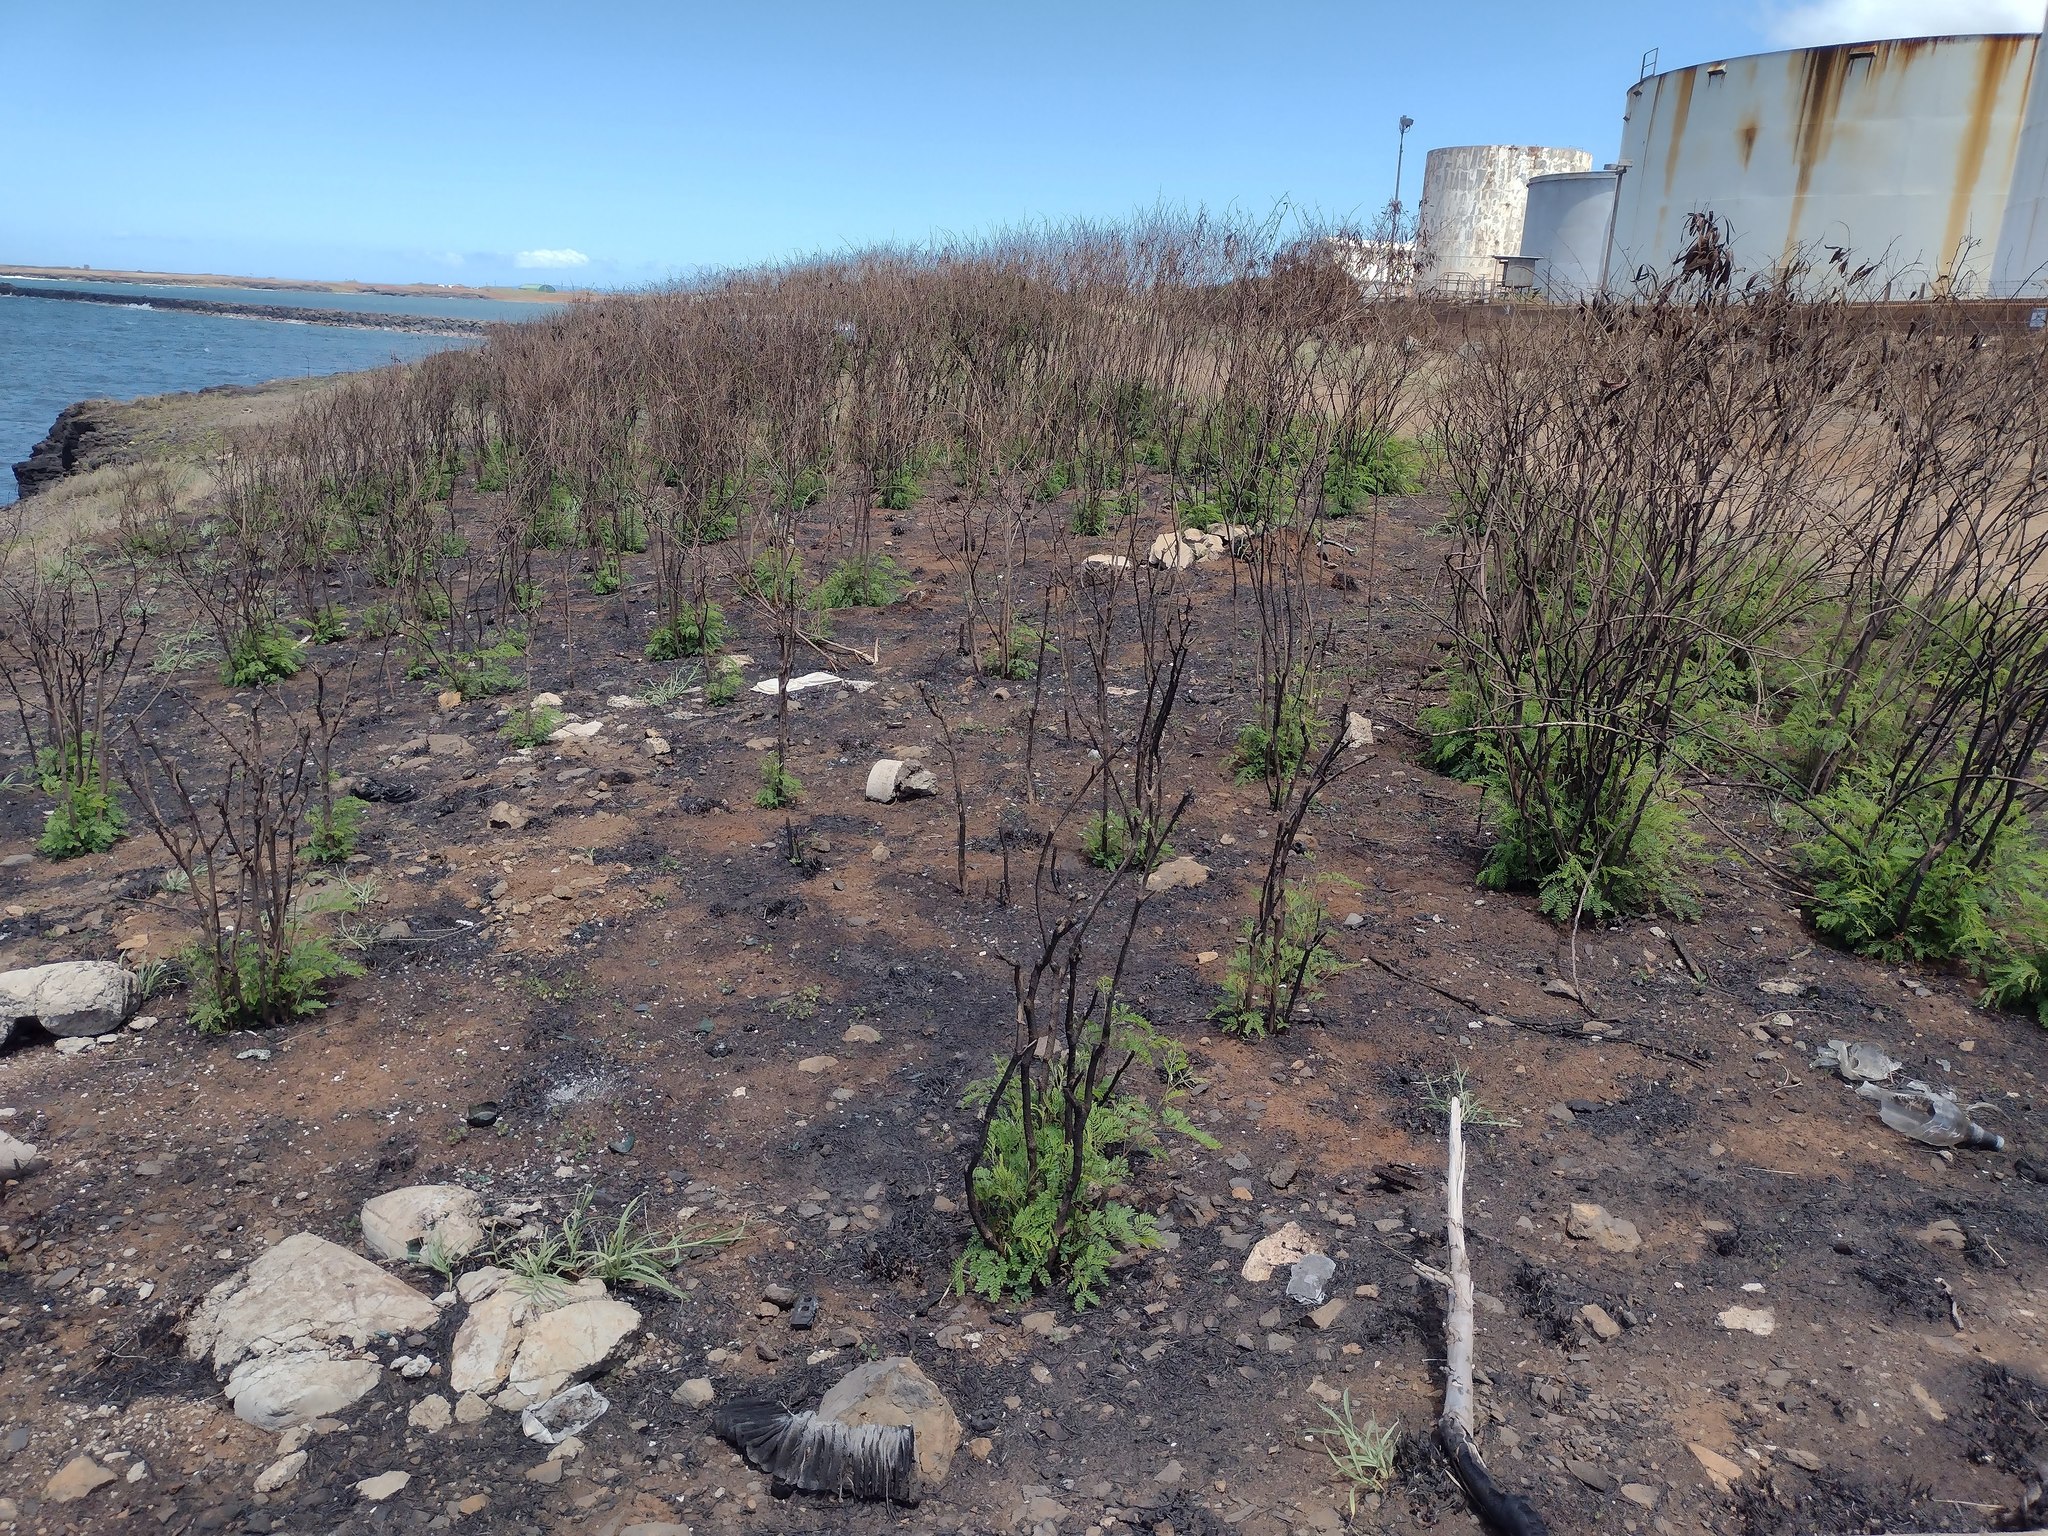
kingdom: Plantae
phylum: Tracheophyta
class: Magnoliopsida
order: Fabales
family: Fabaceae
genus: Leucaena
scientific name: Leucaena leucocephala
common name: White leadtree
